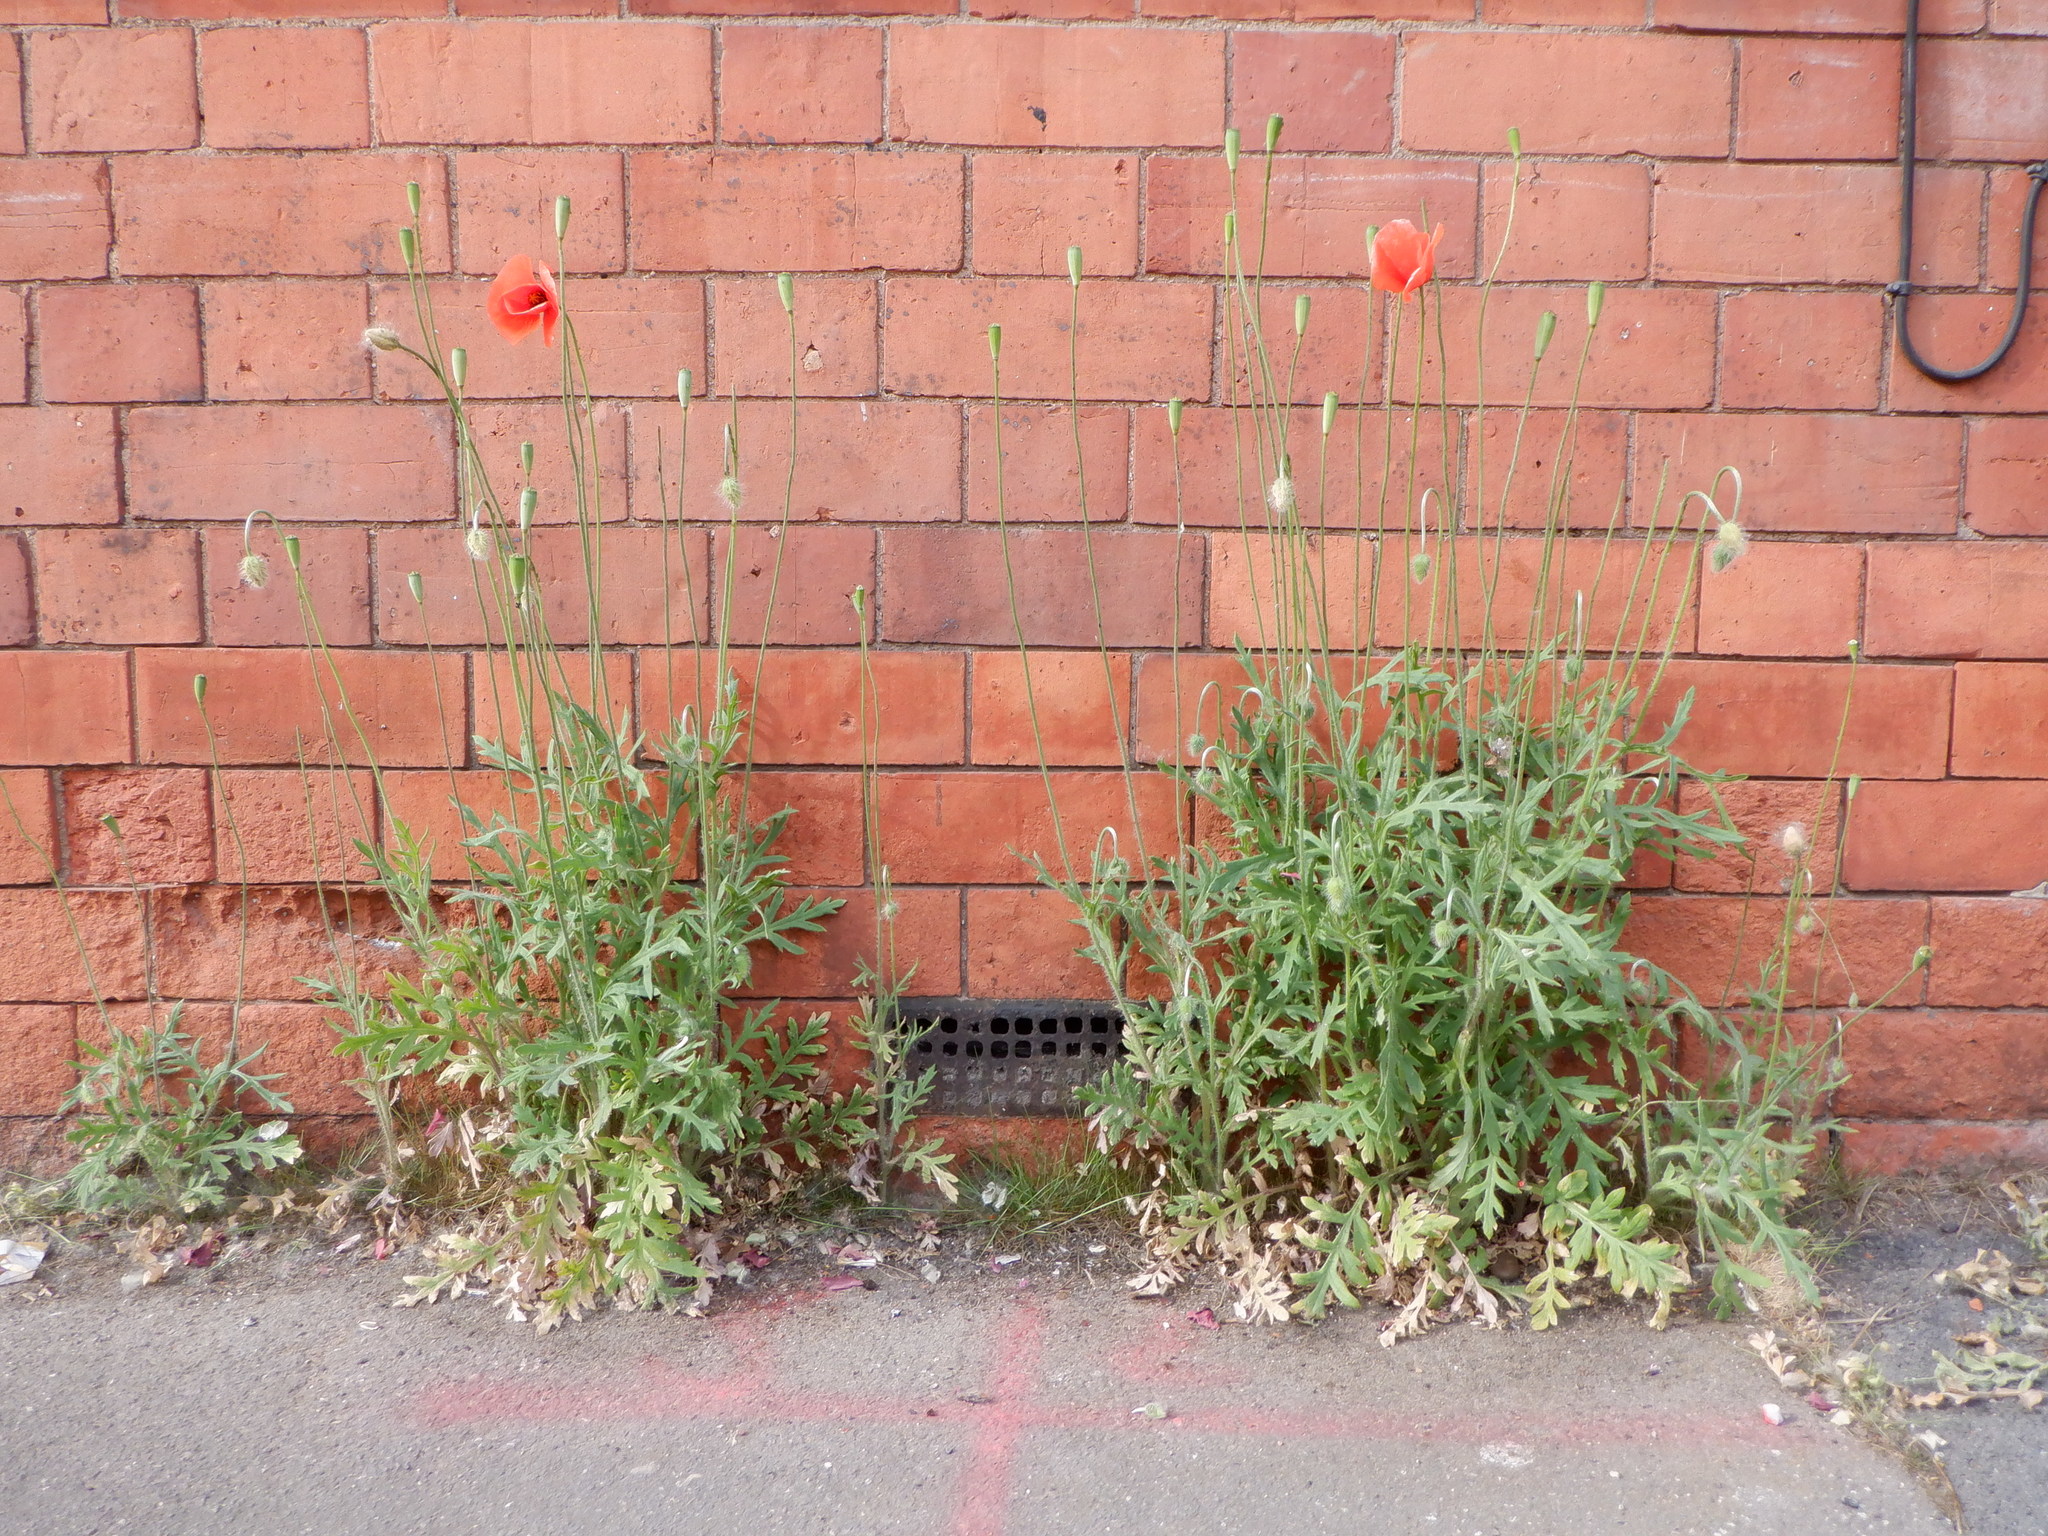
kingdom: Plantae
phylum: Tracheophyta
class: Magnoliopsida
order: Ranunculales
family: Papaveraceae
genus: Papaver
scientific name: Papaver dubium
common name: Long-headed poppy
